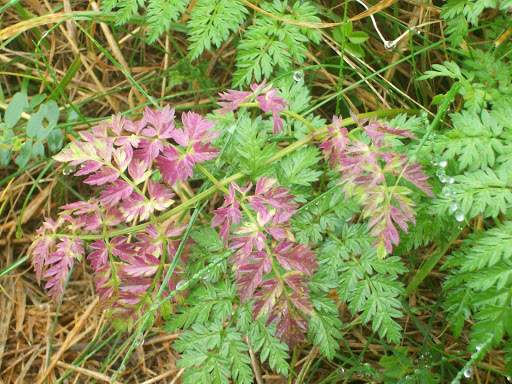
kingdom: Plantae
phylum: Tracheophyta
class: Magnoliopsida
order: Apiales
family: Apiaceae
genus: Anthriscus
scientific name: Anthriscus sylvestris
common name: Cow parsley
